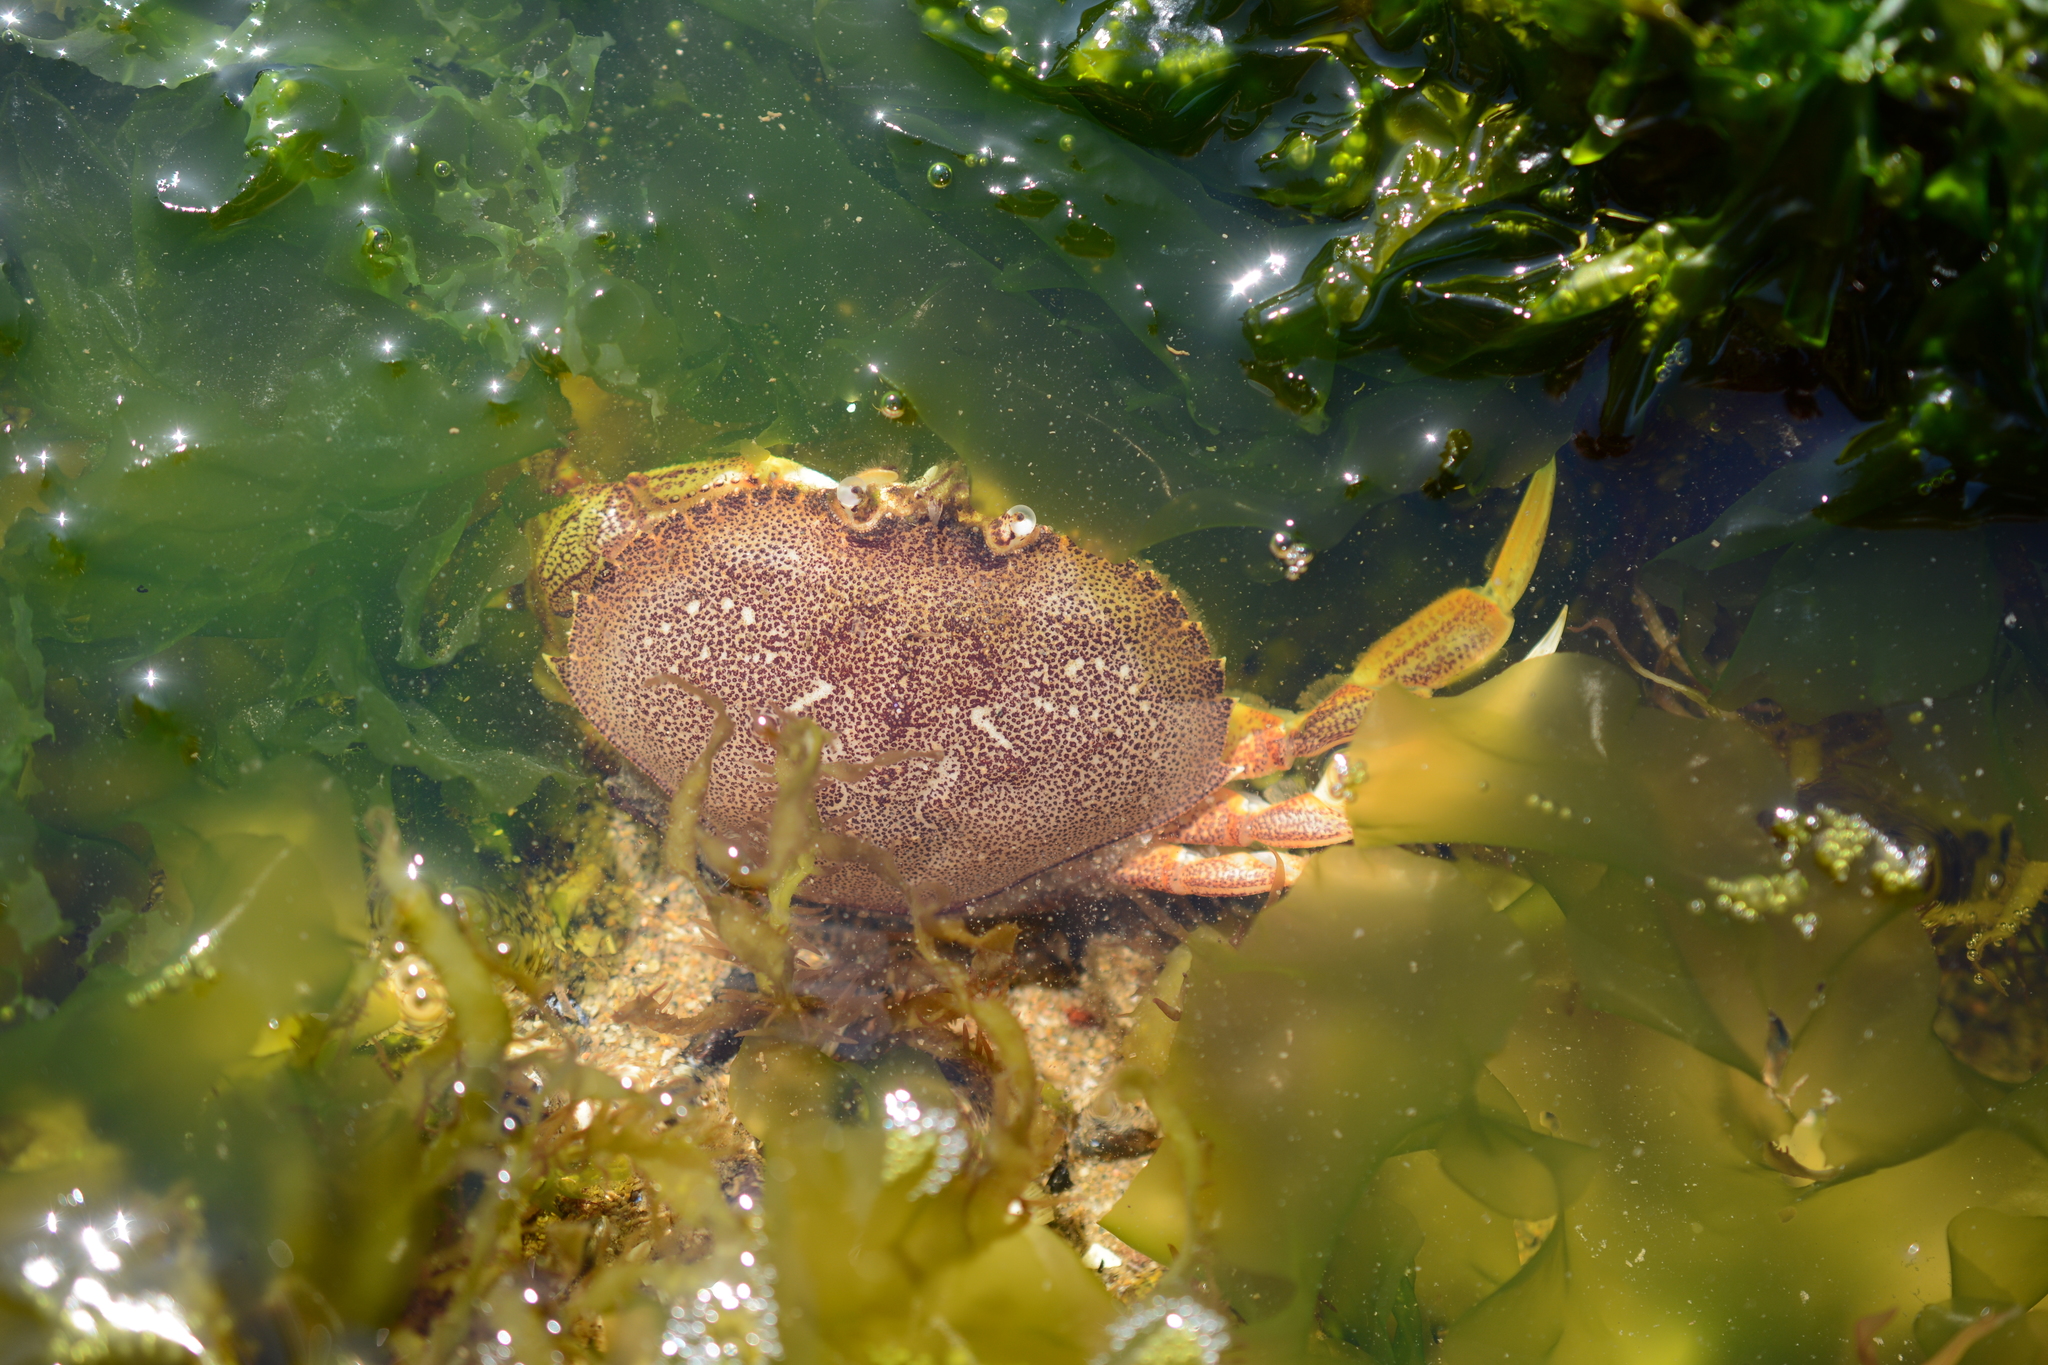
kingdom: Animalia
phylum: Arthropoda
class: Malacostraca
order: Decapoda
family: Cancridae
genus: Metacarcinus
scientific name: Metacarcinus magister
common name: Californian crab
